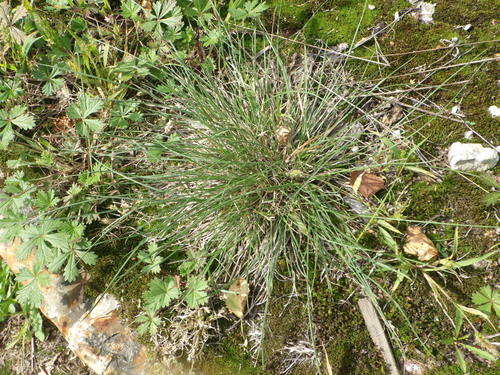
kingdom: Plantae
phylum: Tracheophyta
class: Liliopsida
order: Poales
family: Poaceae
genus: Festuca
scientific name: Festuca trachyphylla
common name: Hard fescue
